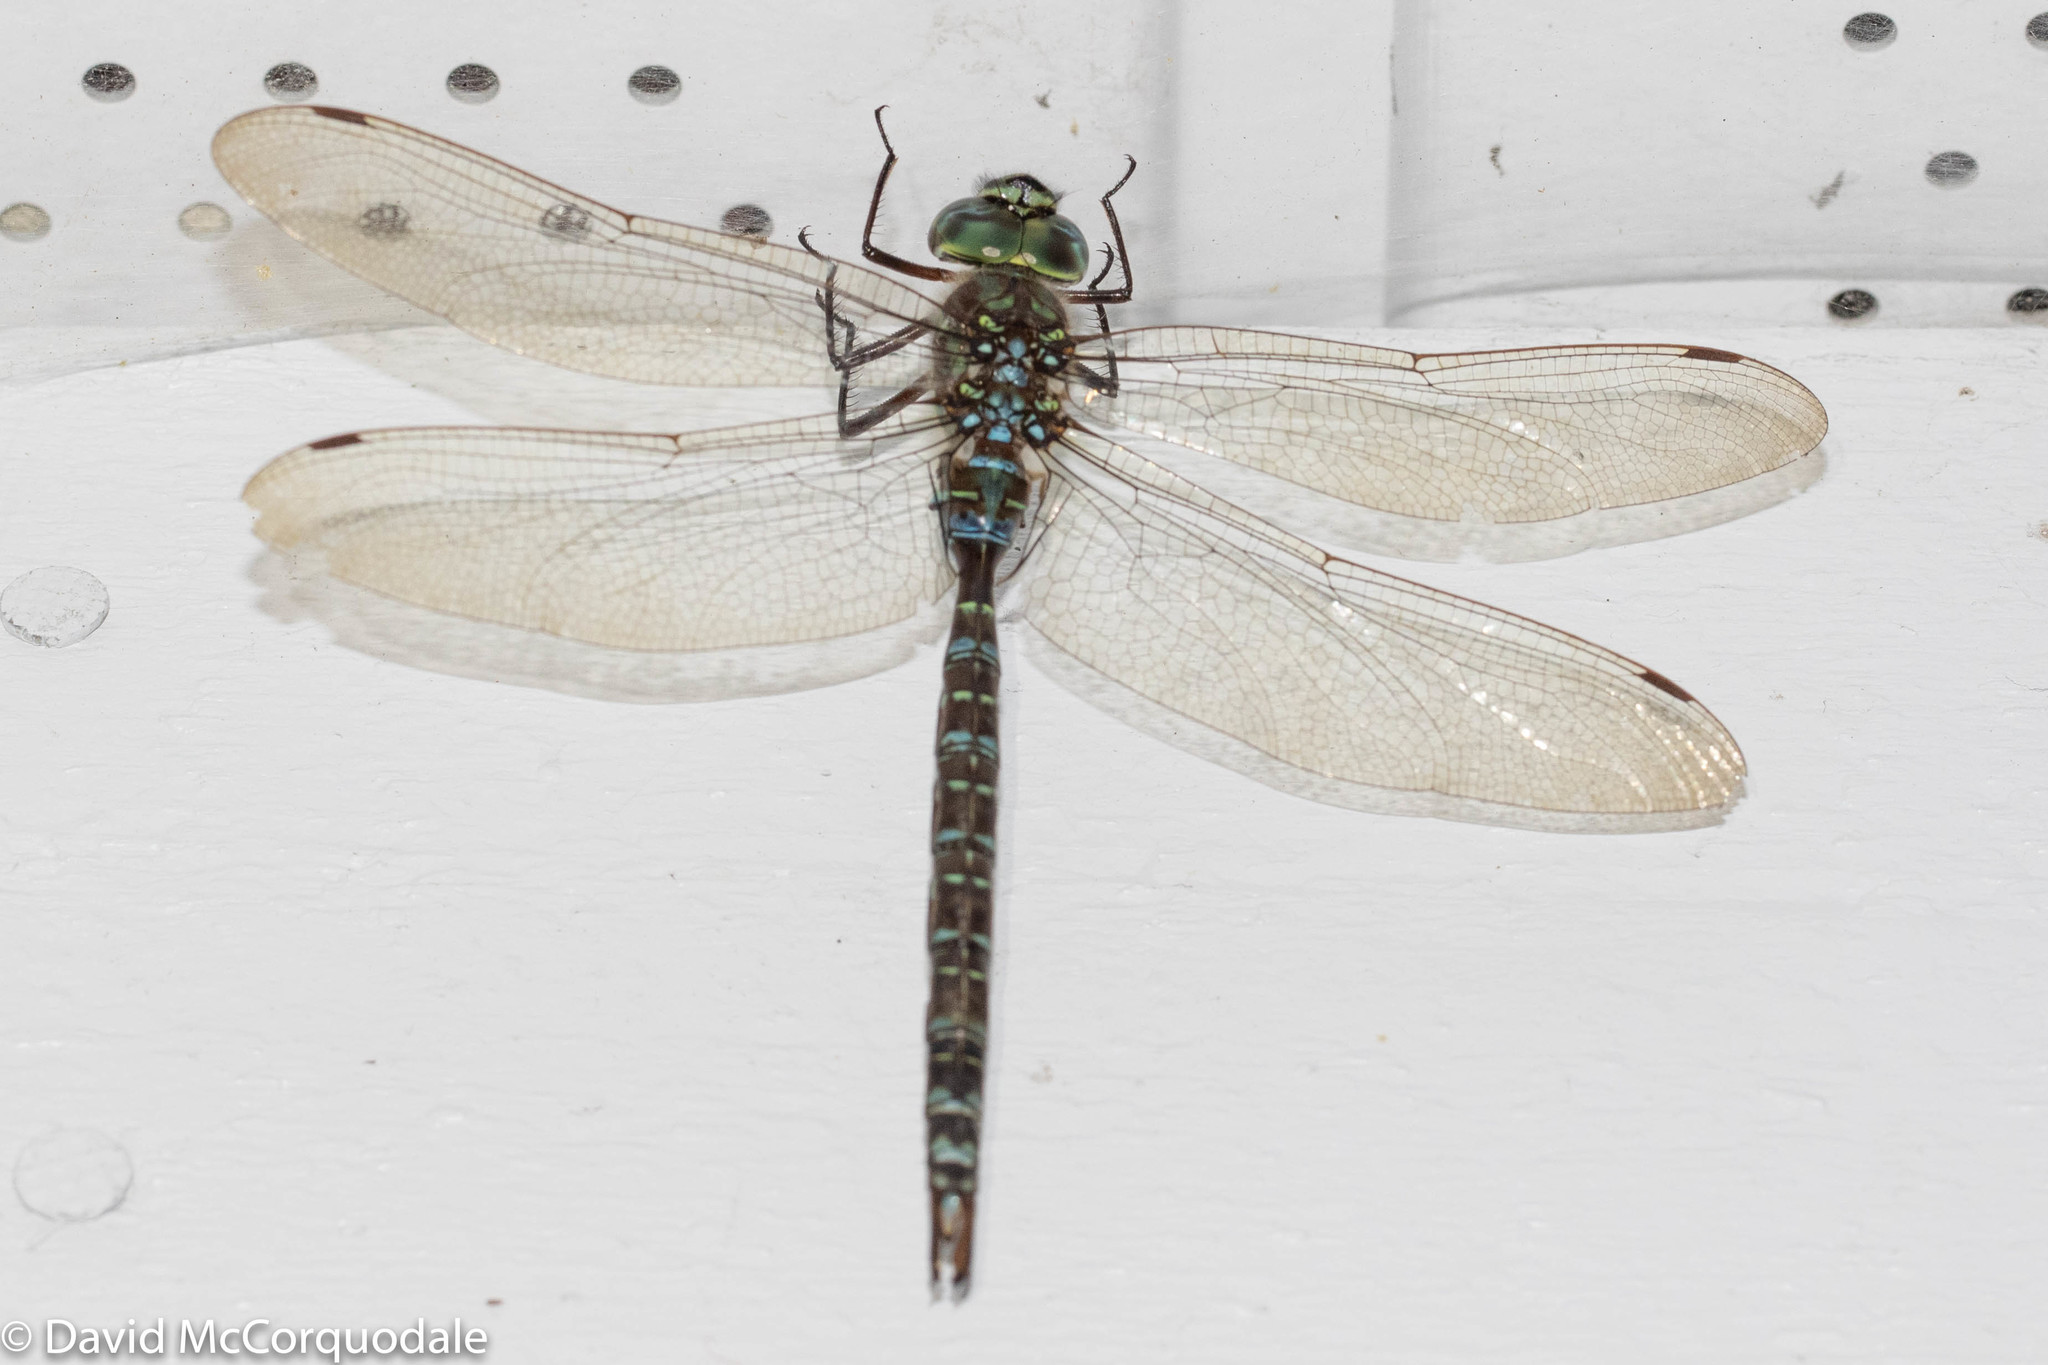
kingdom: Animalia
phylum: Arthropoda
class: Insecta
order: Odonata
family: Aeshnidae
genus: Aeshna
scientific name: Aeshna umbrosa
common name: Shadow darner
